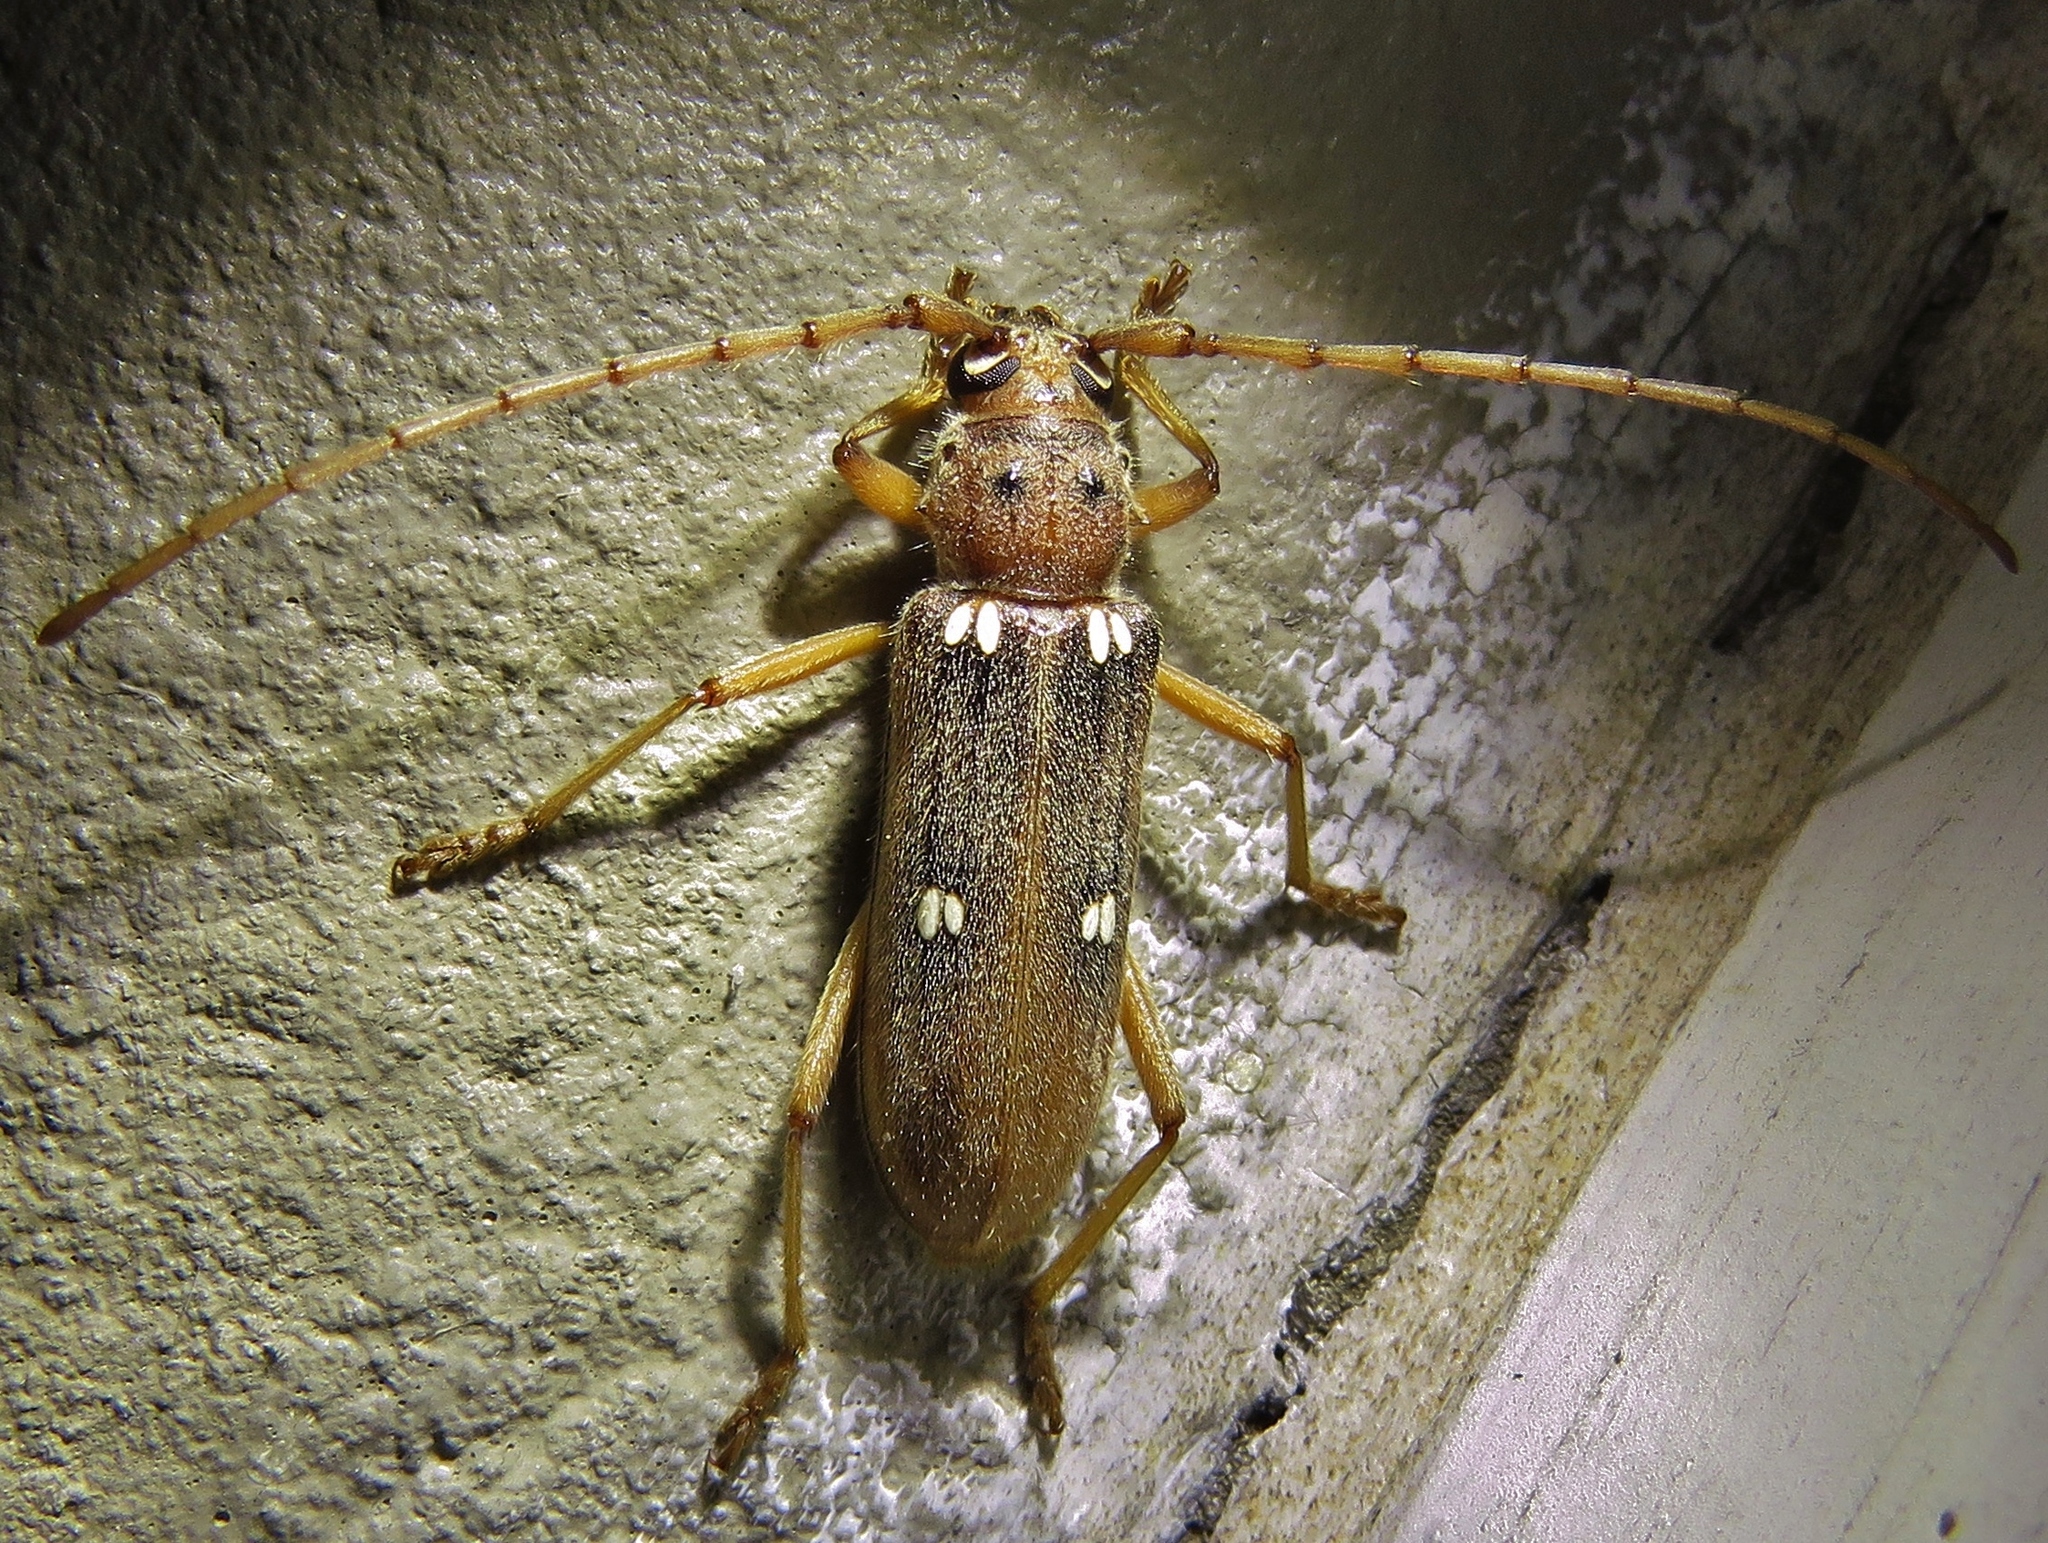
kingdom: Animalia
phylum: Arthropoda
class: Insecta
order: Coleoptera
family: Cerambycidae
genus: Eburia
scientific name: Eburia quadrigeminata
